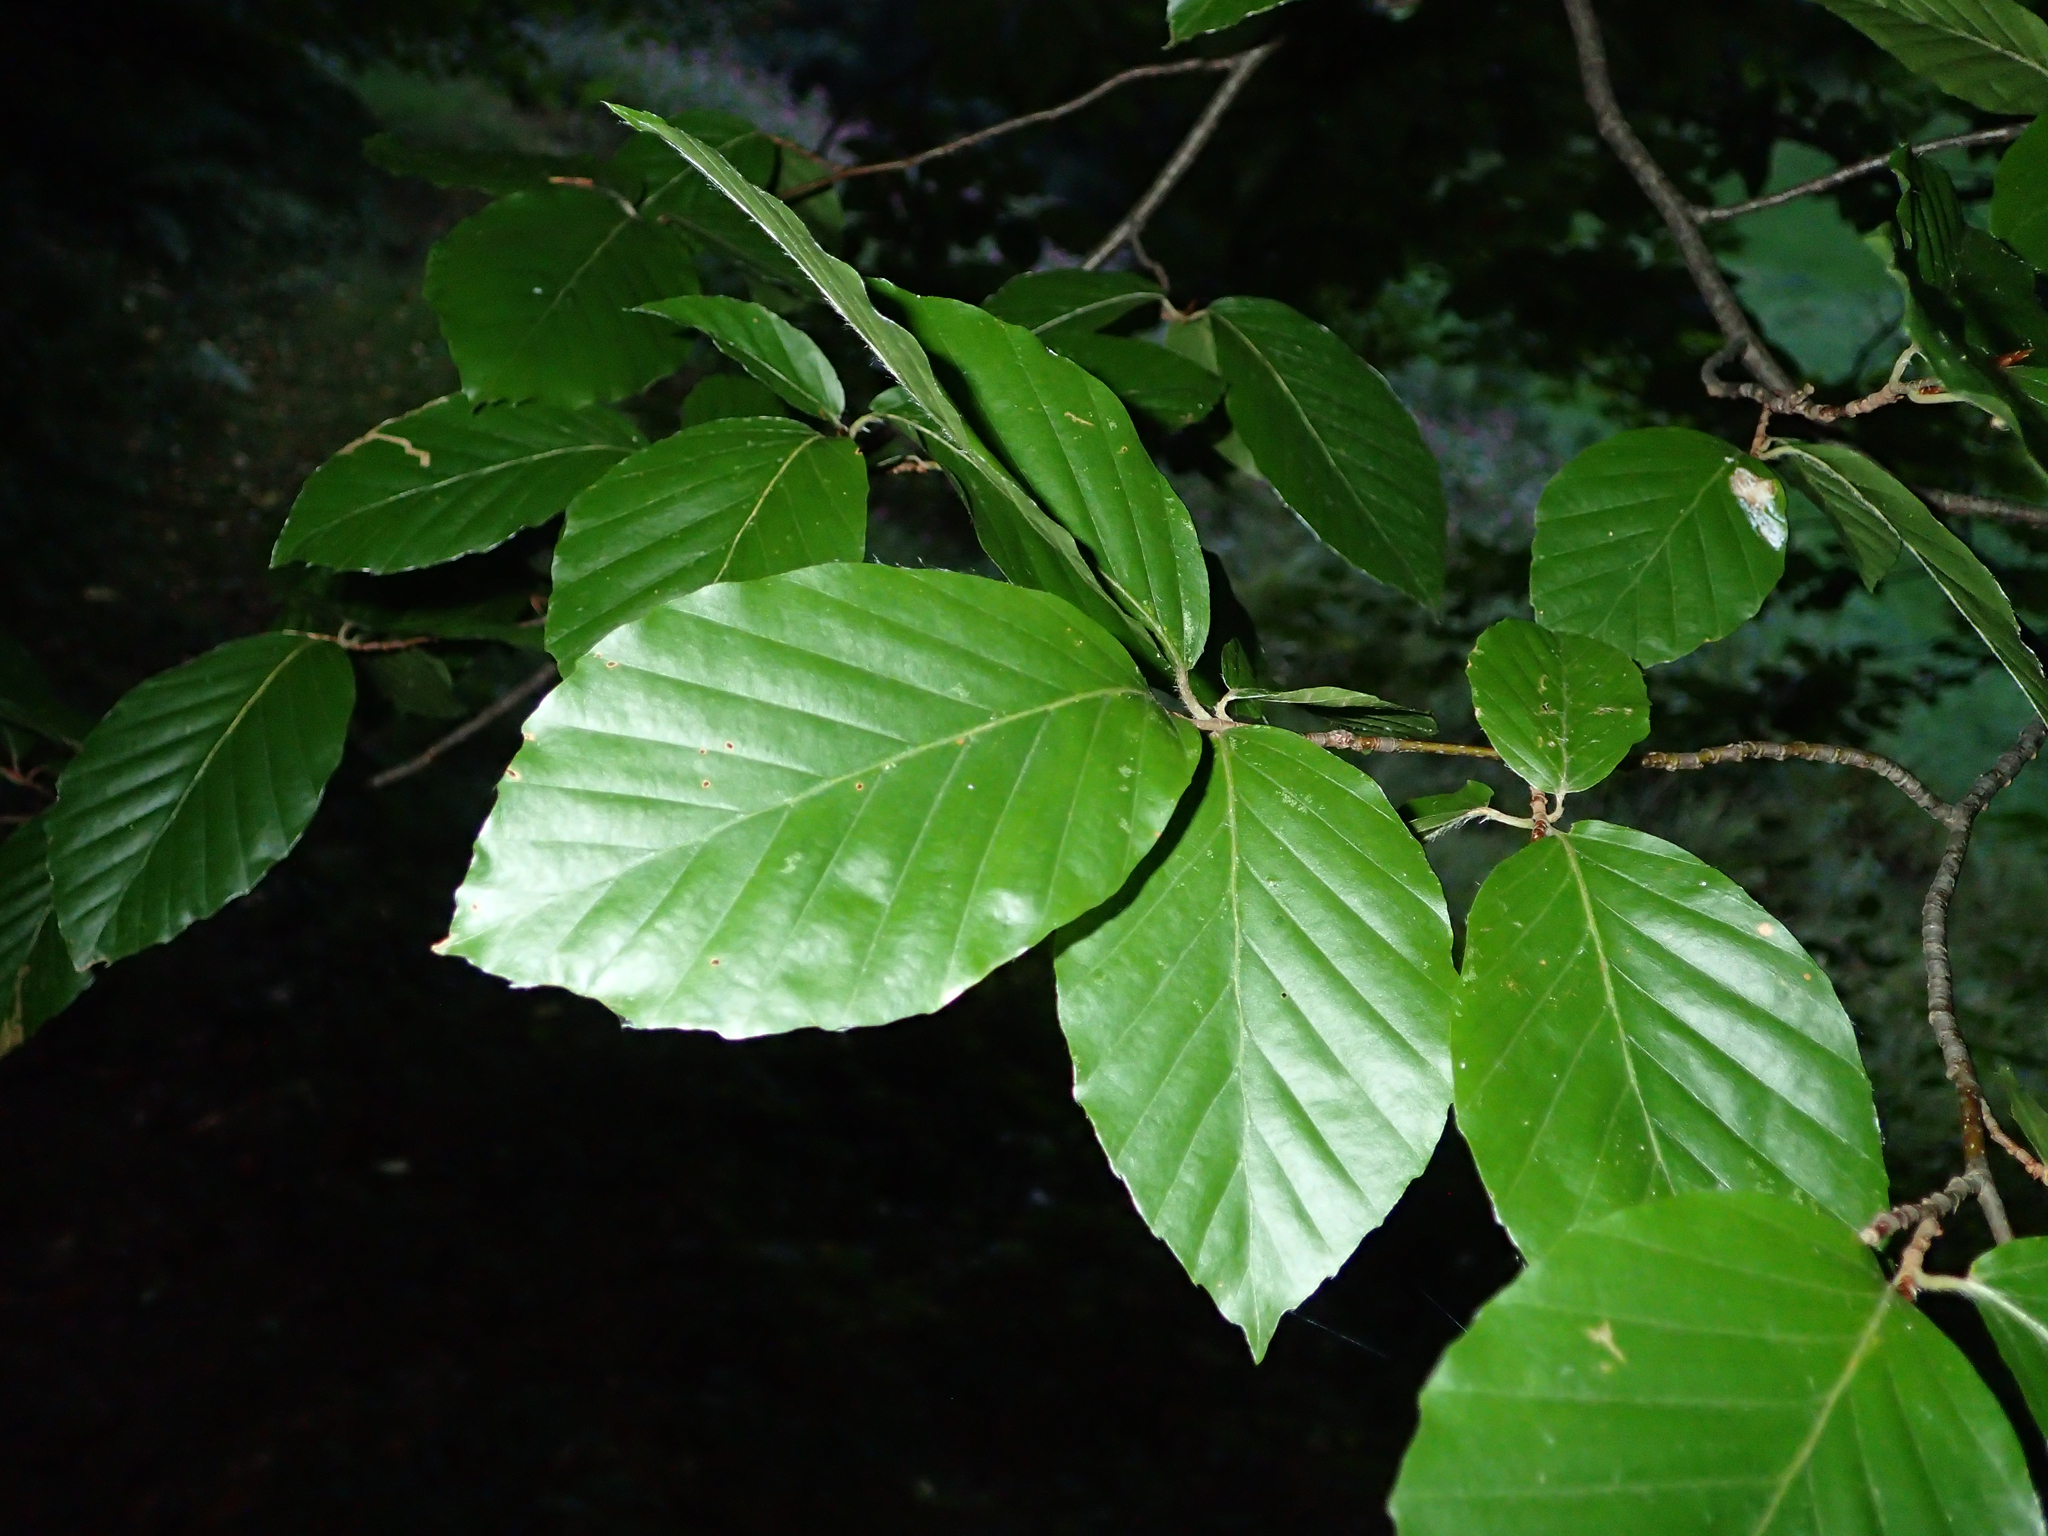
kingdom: Plantae
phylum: Tracheophyta
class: Magnoliopsida
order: Fagales
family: Fagaceae
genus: Fagus
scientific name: Fagus sylvatica
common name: Beech
